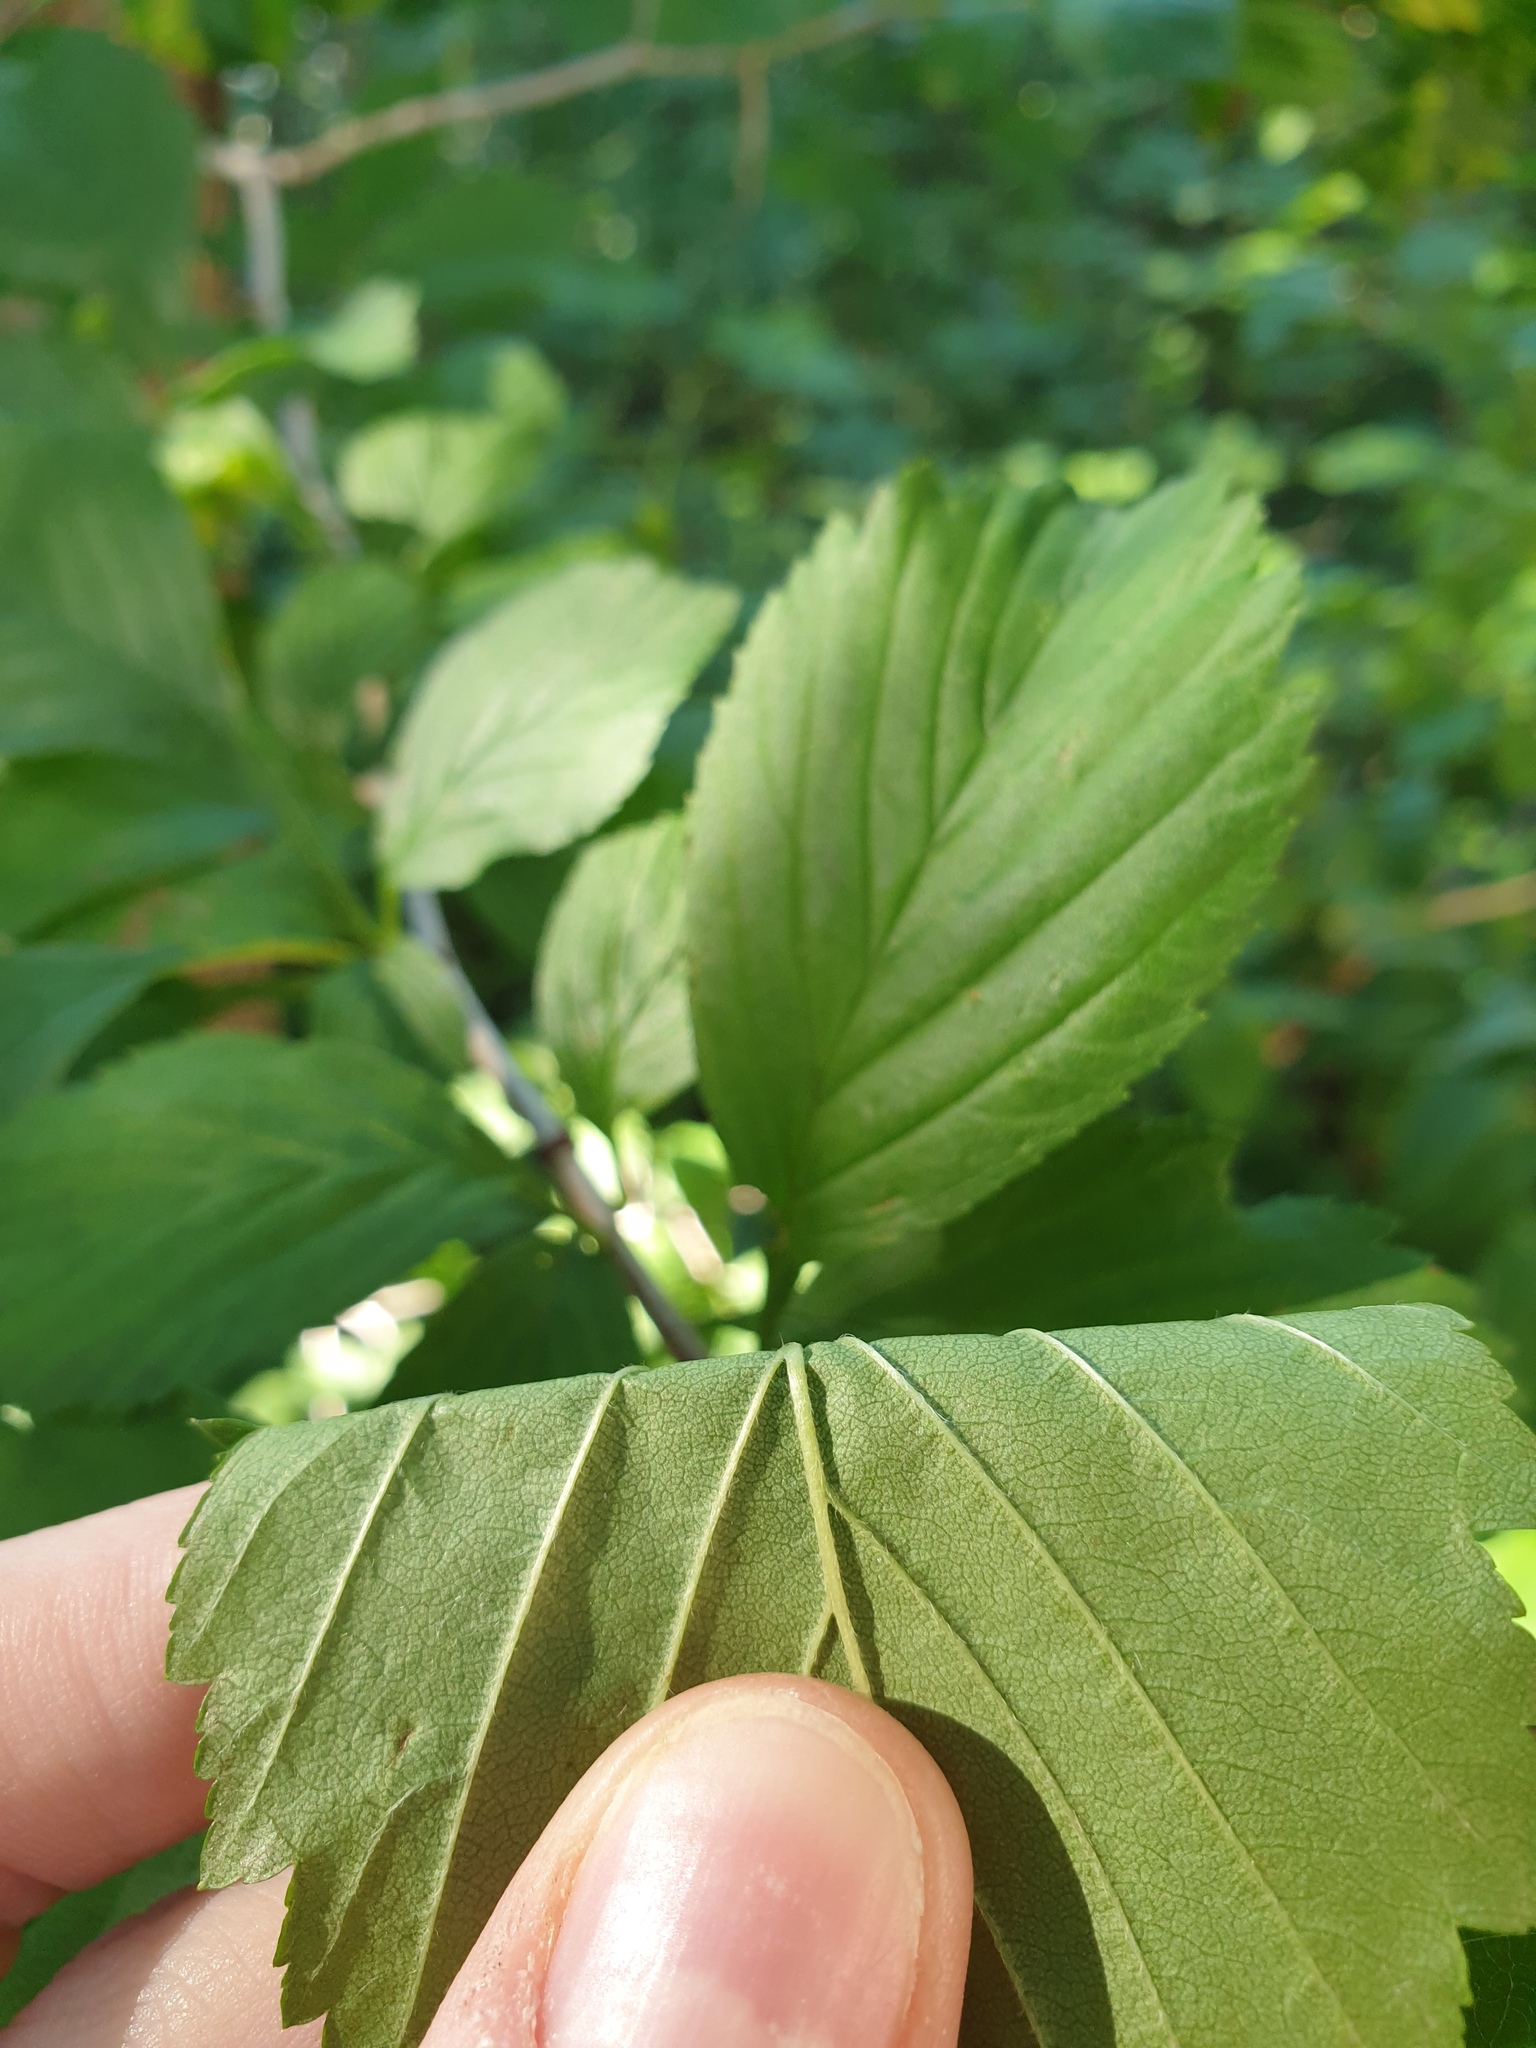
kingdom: Plantae
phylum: Tracheophyta
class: Magnoliopsida
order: Rosales
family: Rosaceae
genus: Crataegus
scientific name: Crataegus punctata
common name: Dotted hawthorn
